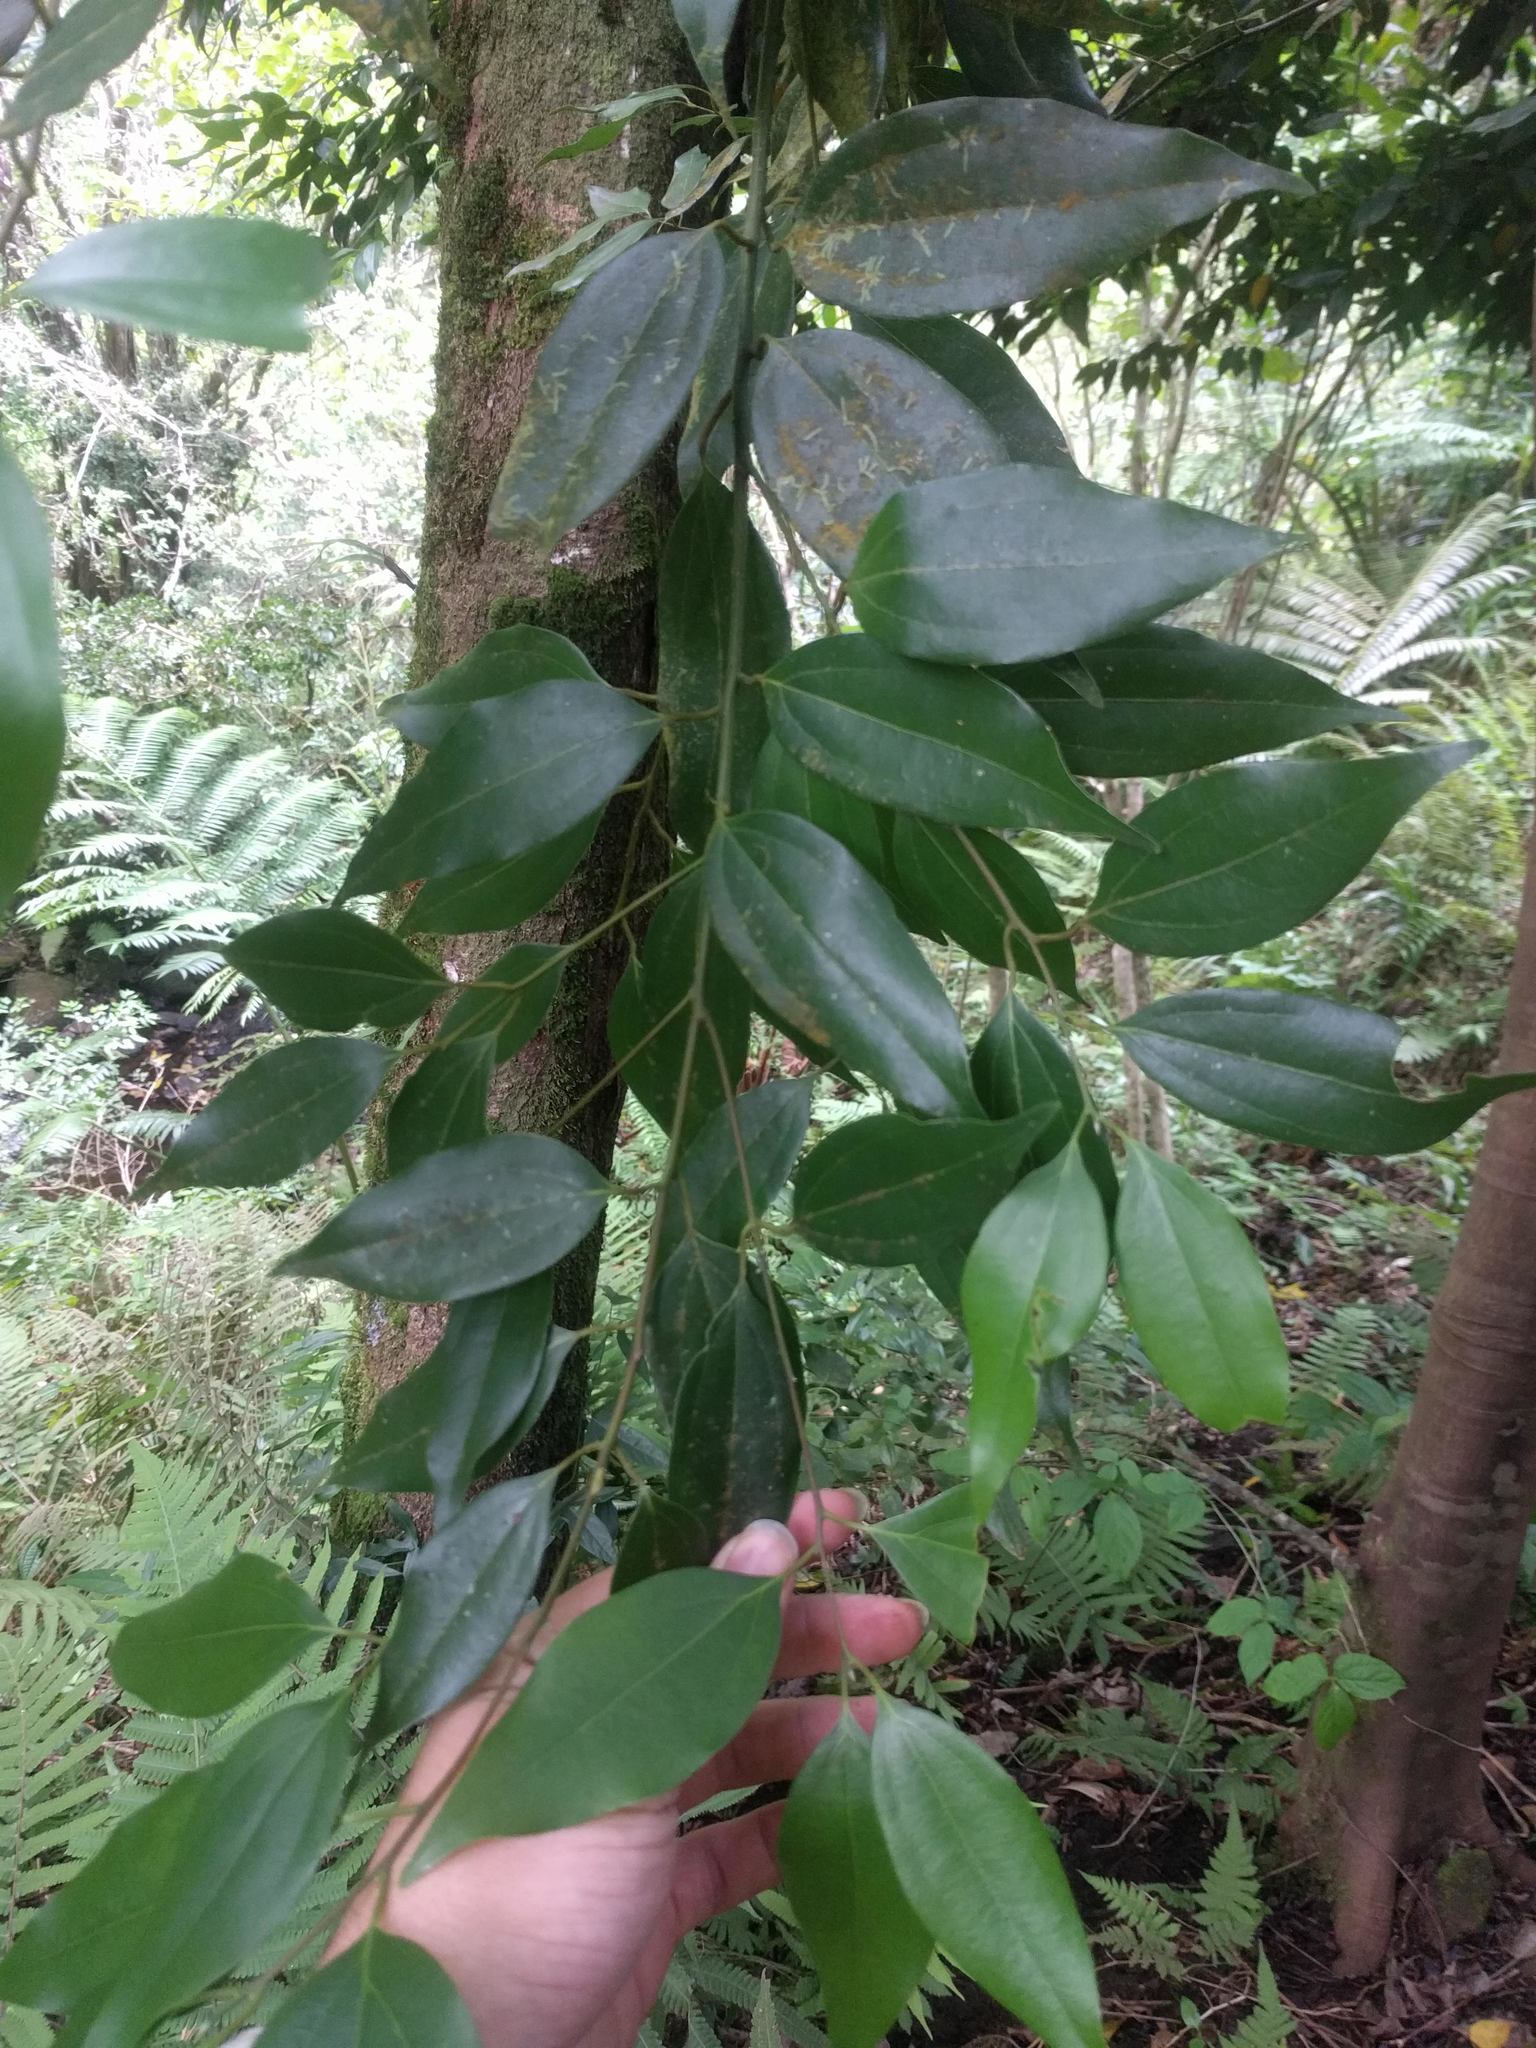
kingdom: Plantae
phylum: Tracheophyta
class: Magnoliopsida
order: Laurales
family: Lauraceae
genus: Cinnamomum
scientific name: Cinnamomum burmanni
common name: Padang cassia
